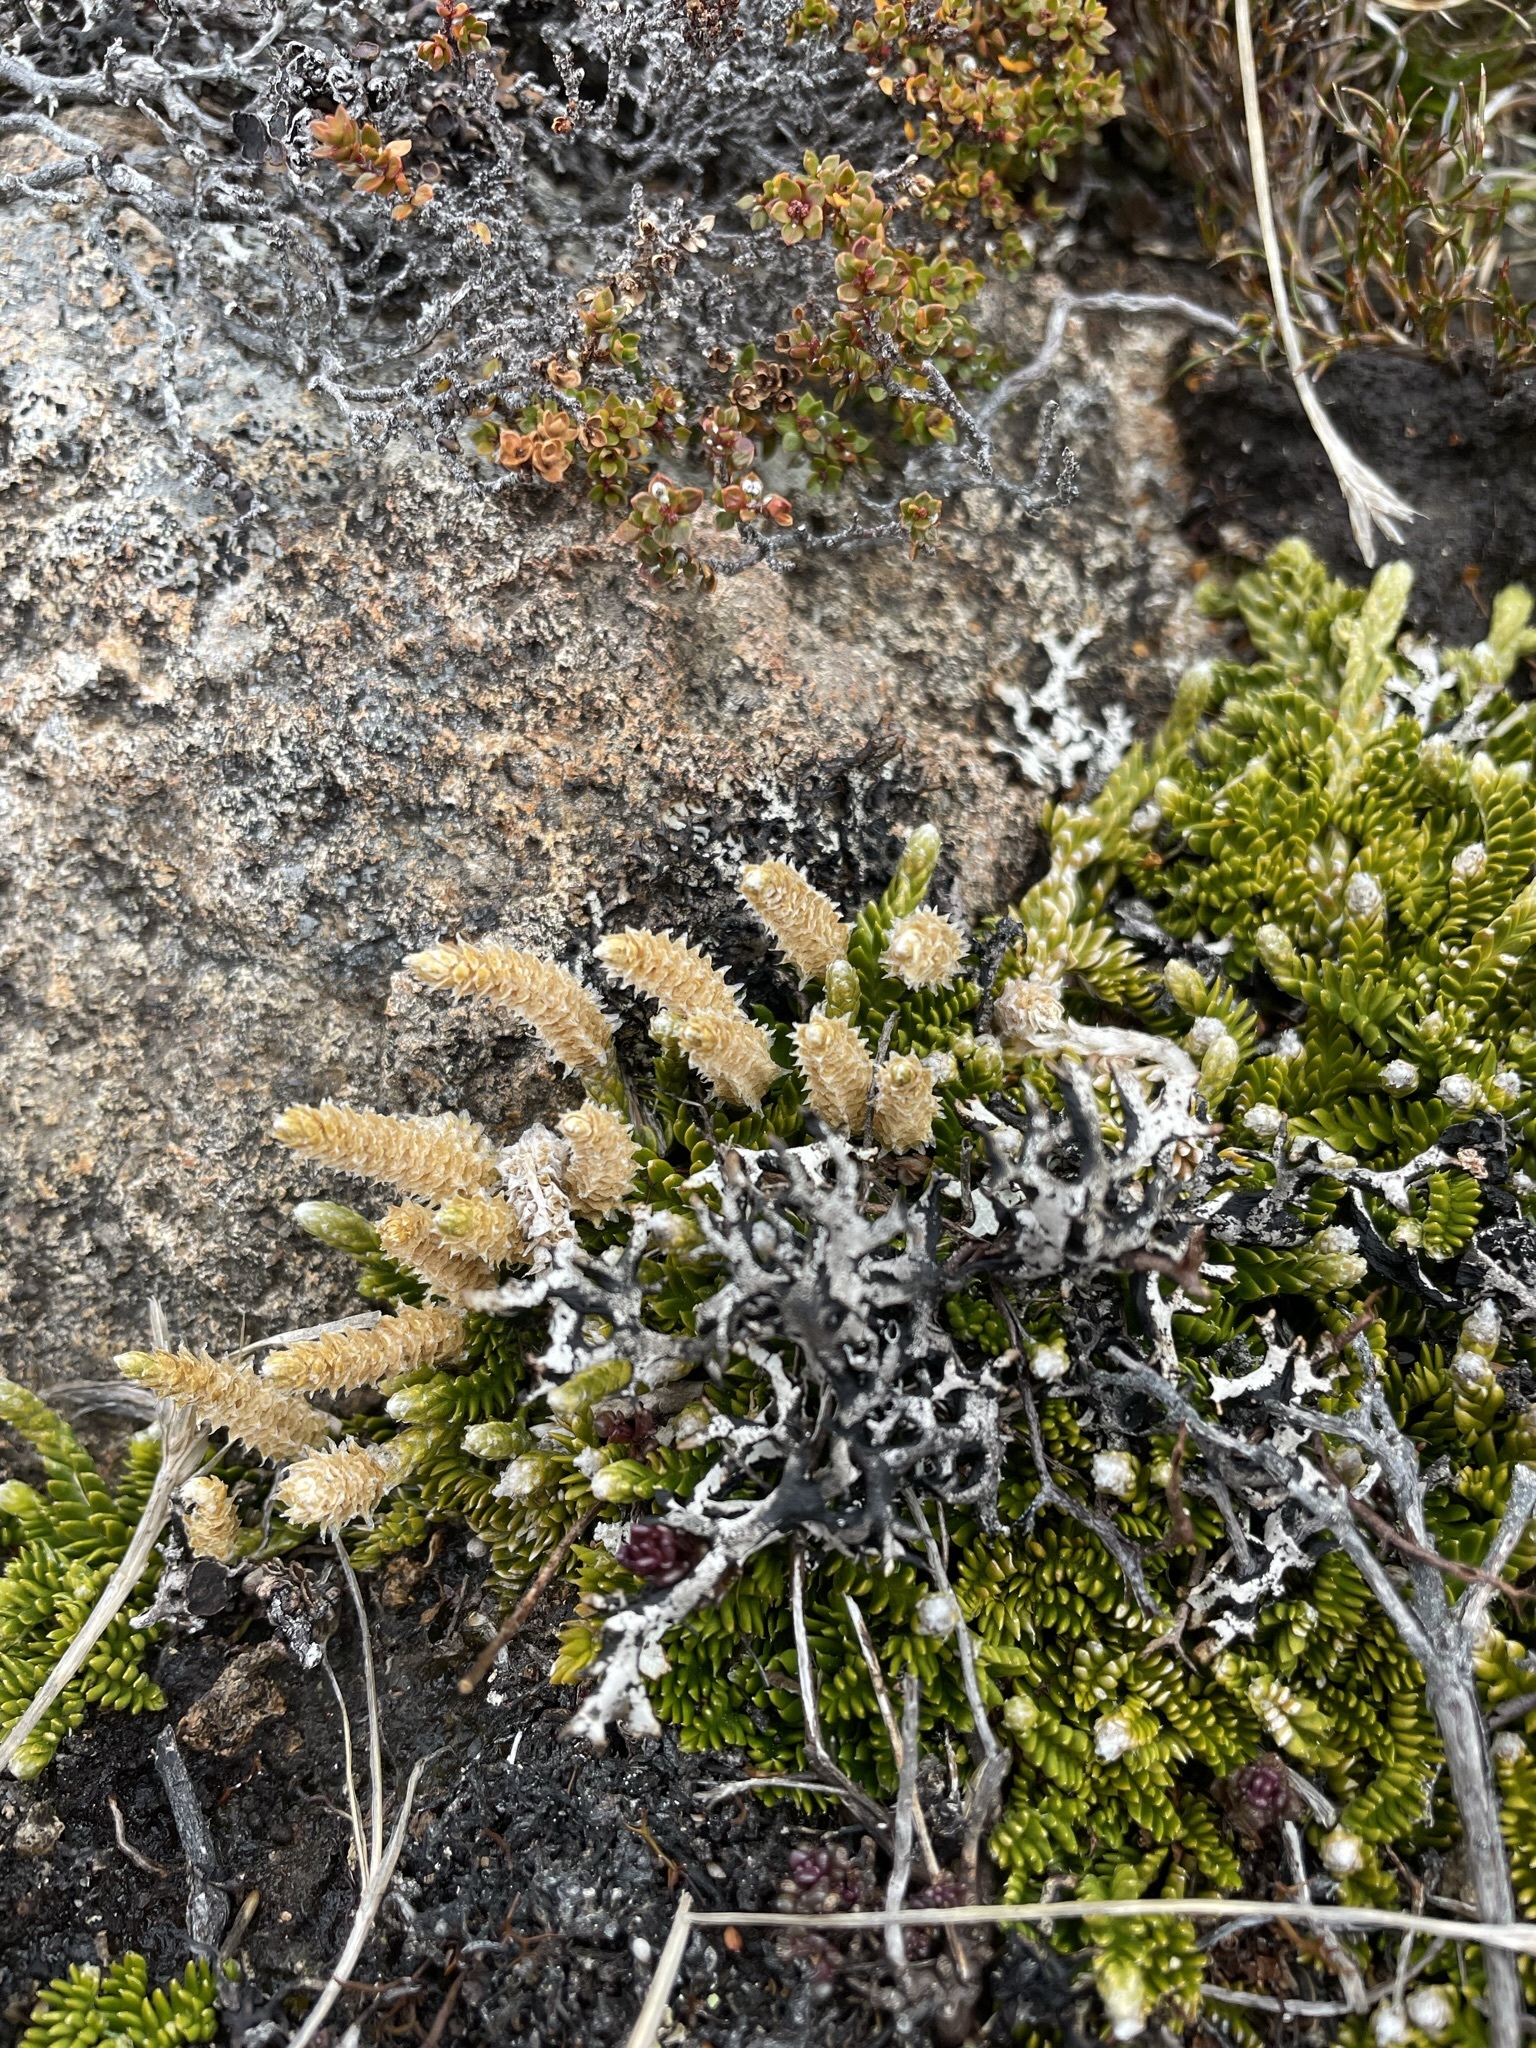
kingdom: Plantae
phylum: Tracheophyta
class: Lycopodiopsida
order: Lycopodiales
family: Lycopodiaceae
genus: Diphasium
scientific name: Diphasium scariosum
